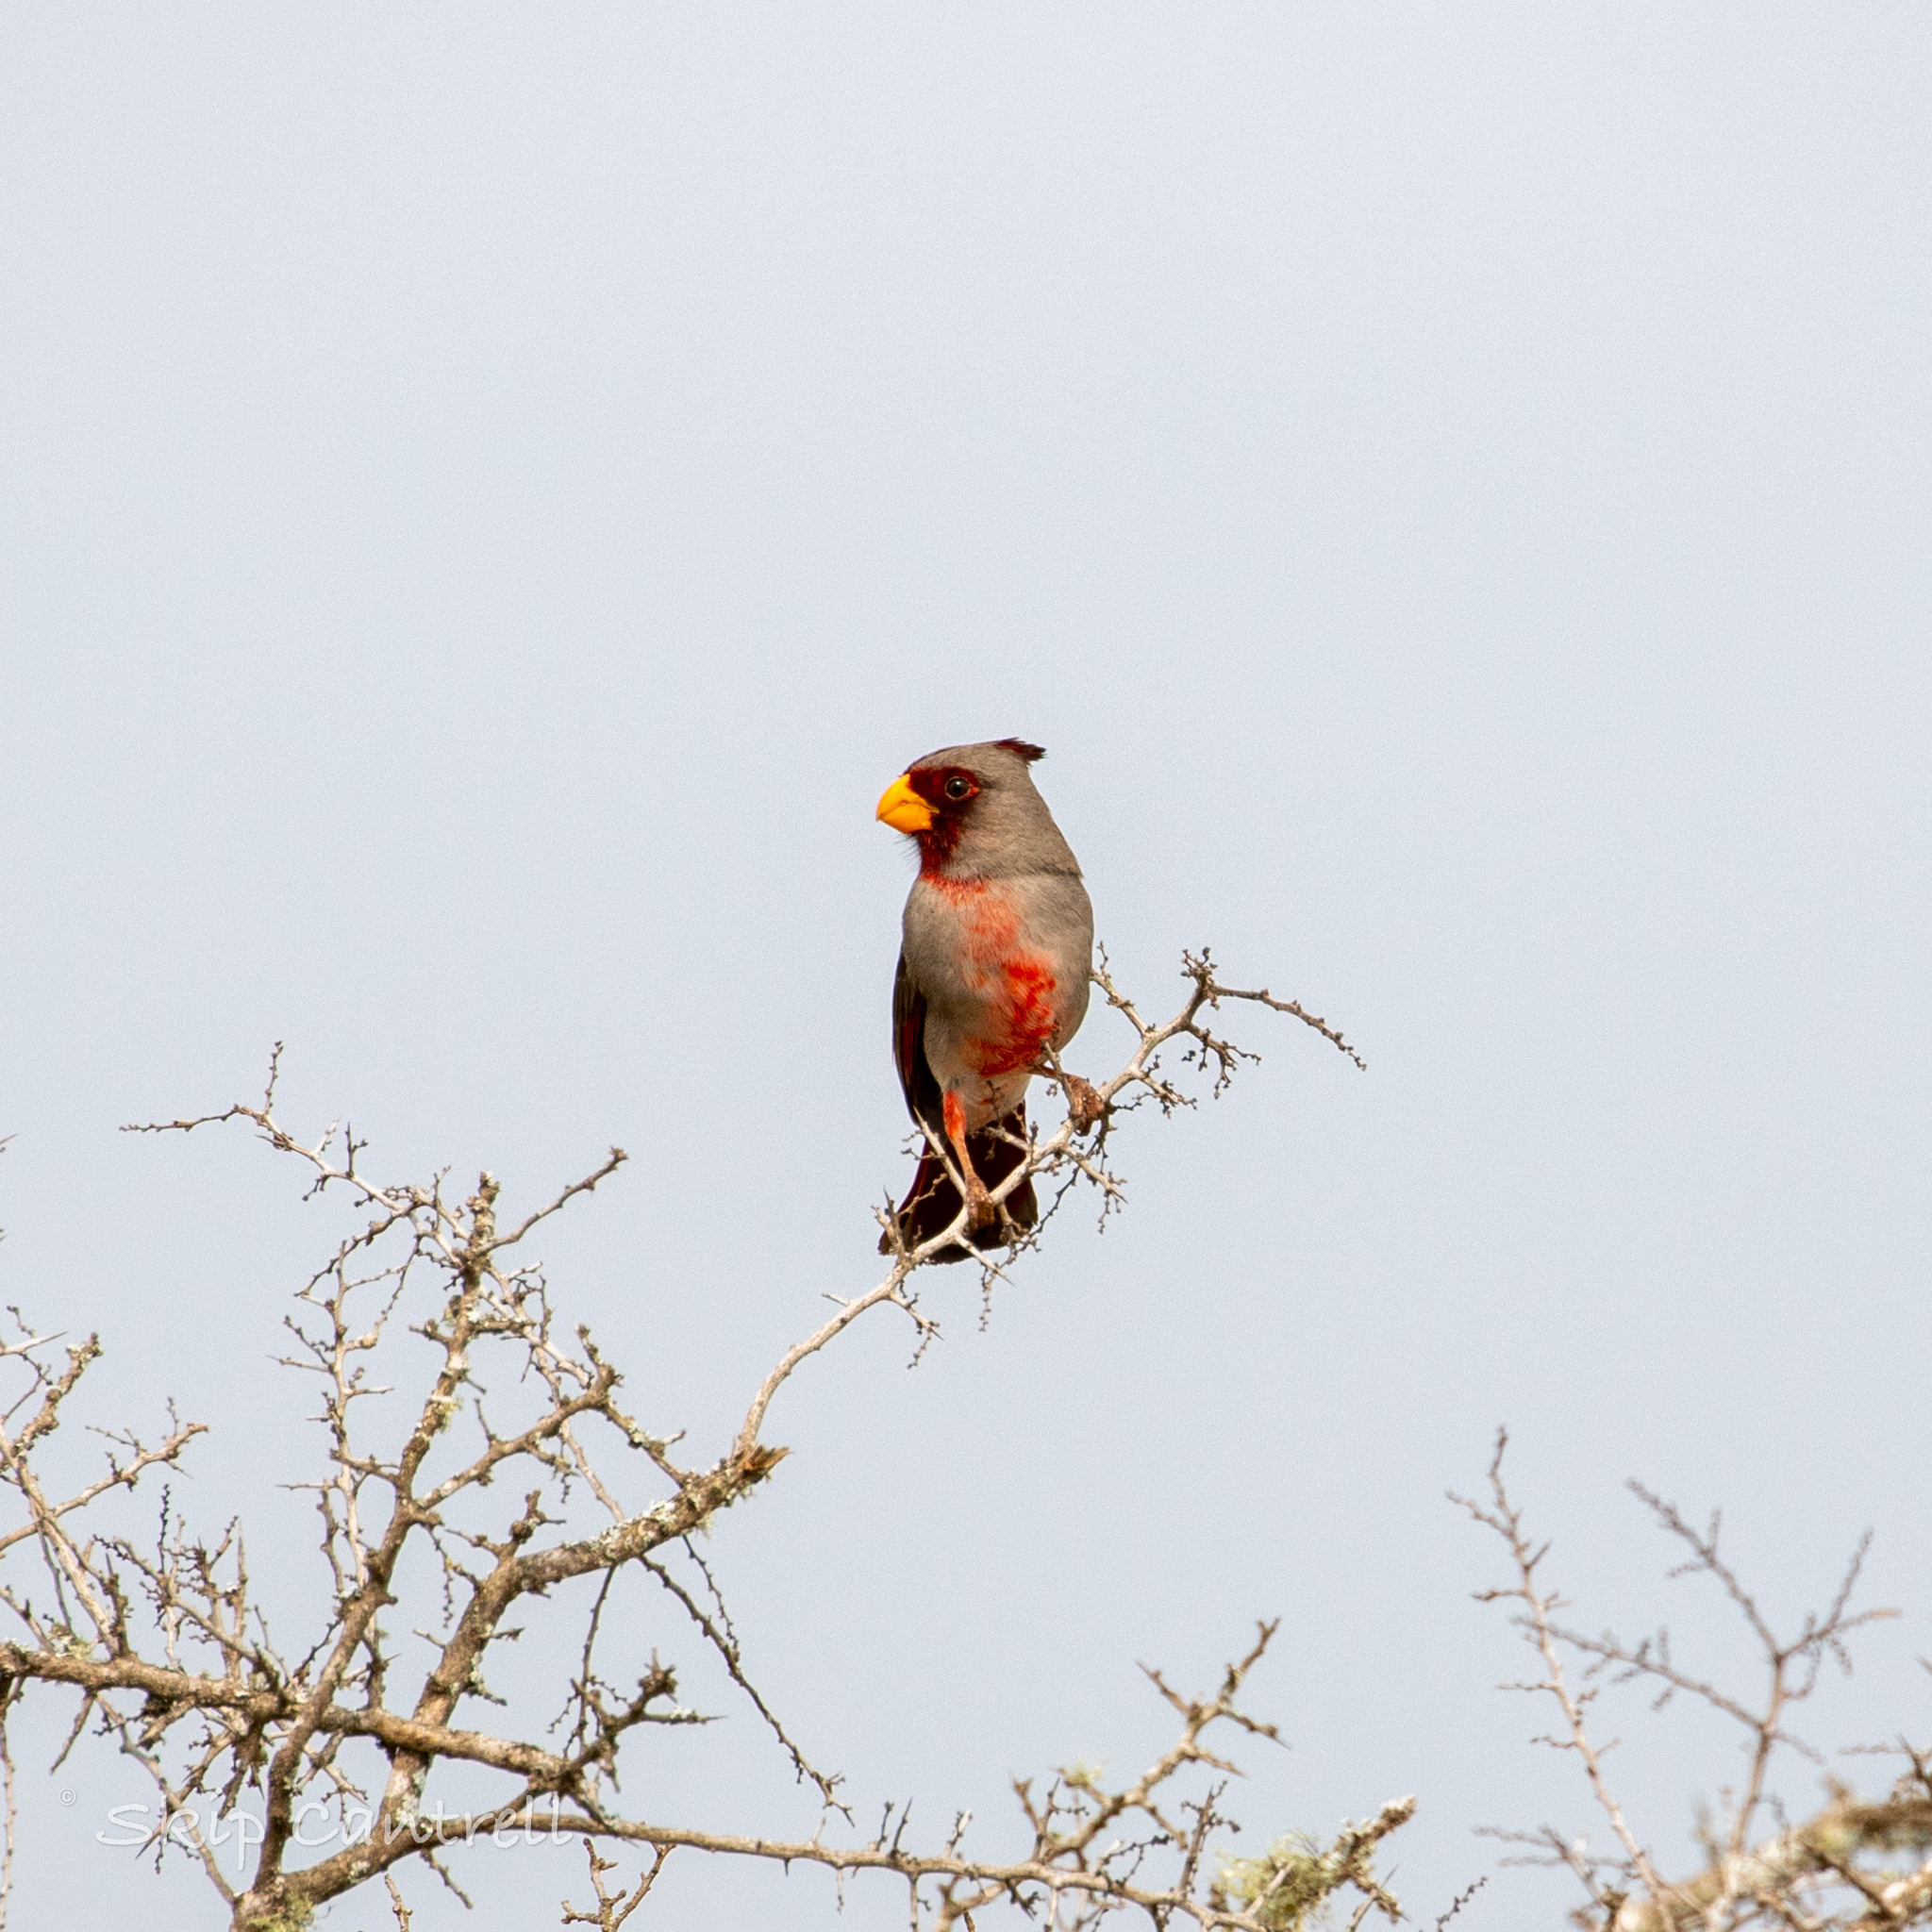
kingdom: Animalia
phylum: Chordata
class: Aves
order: Passeriformes
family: Cardinalidae
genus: Cardinalis
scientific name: Cardinalis sinuatus
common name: Pyrrhuloxia
